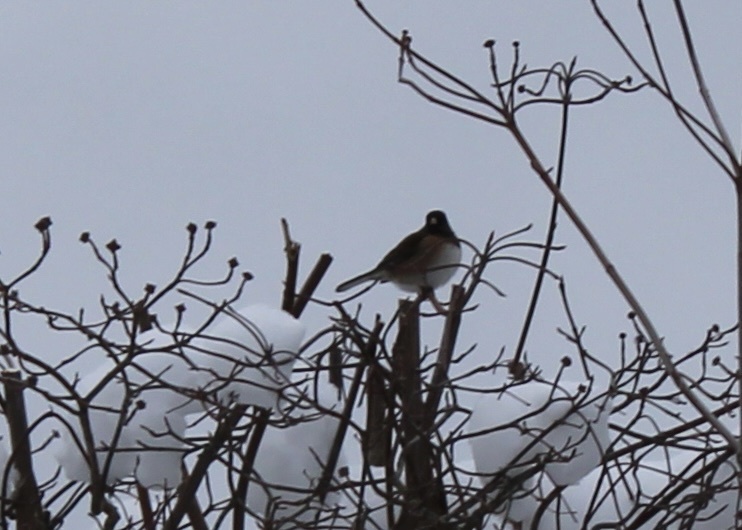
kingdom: Animalia
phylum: Chordata
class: Aves
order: Passeriformes
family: Passerellidae
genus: Junco
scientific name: Junco hyemalis
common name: Dark-eyed junco
